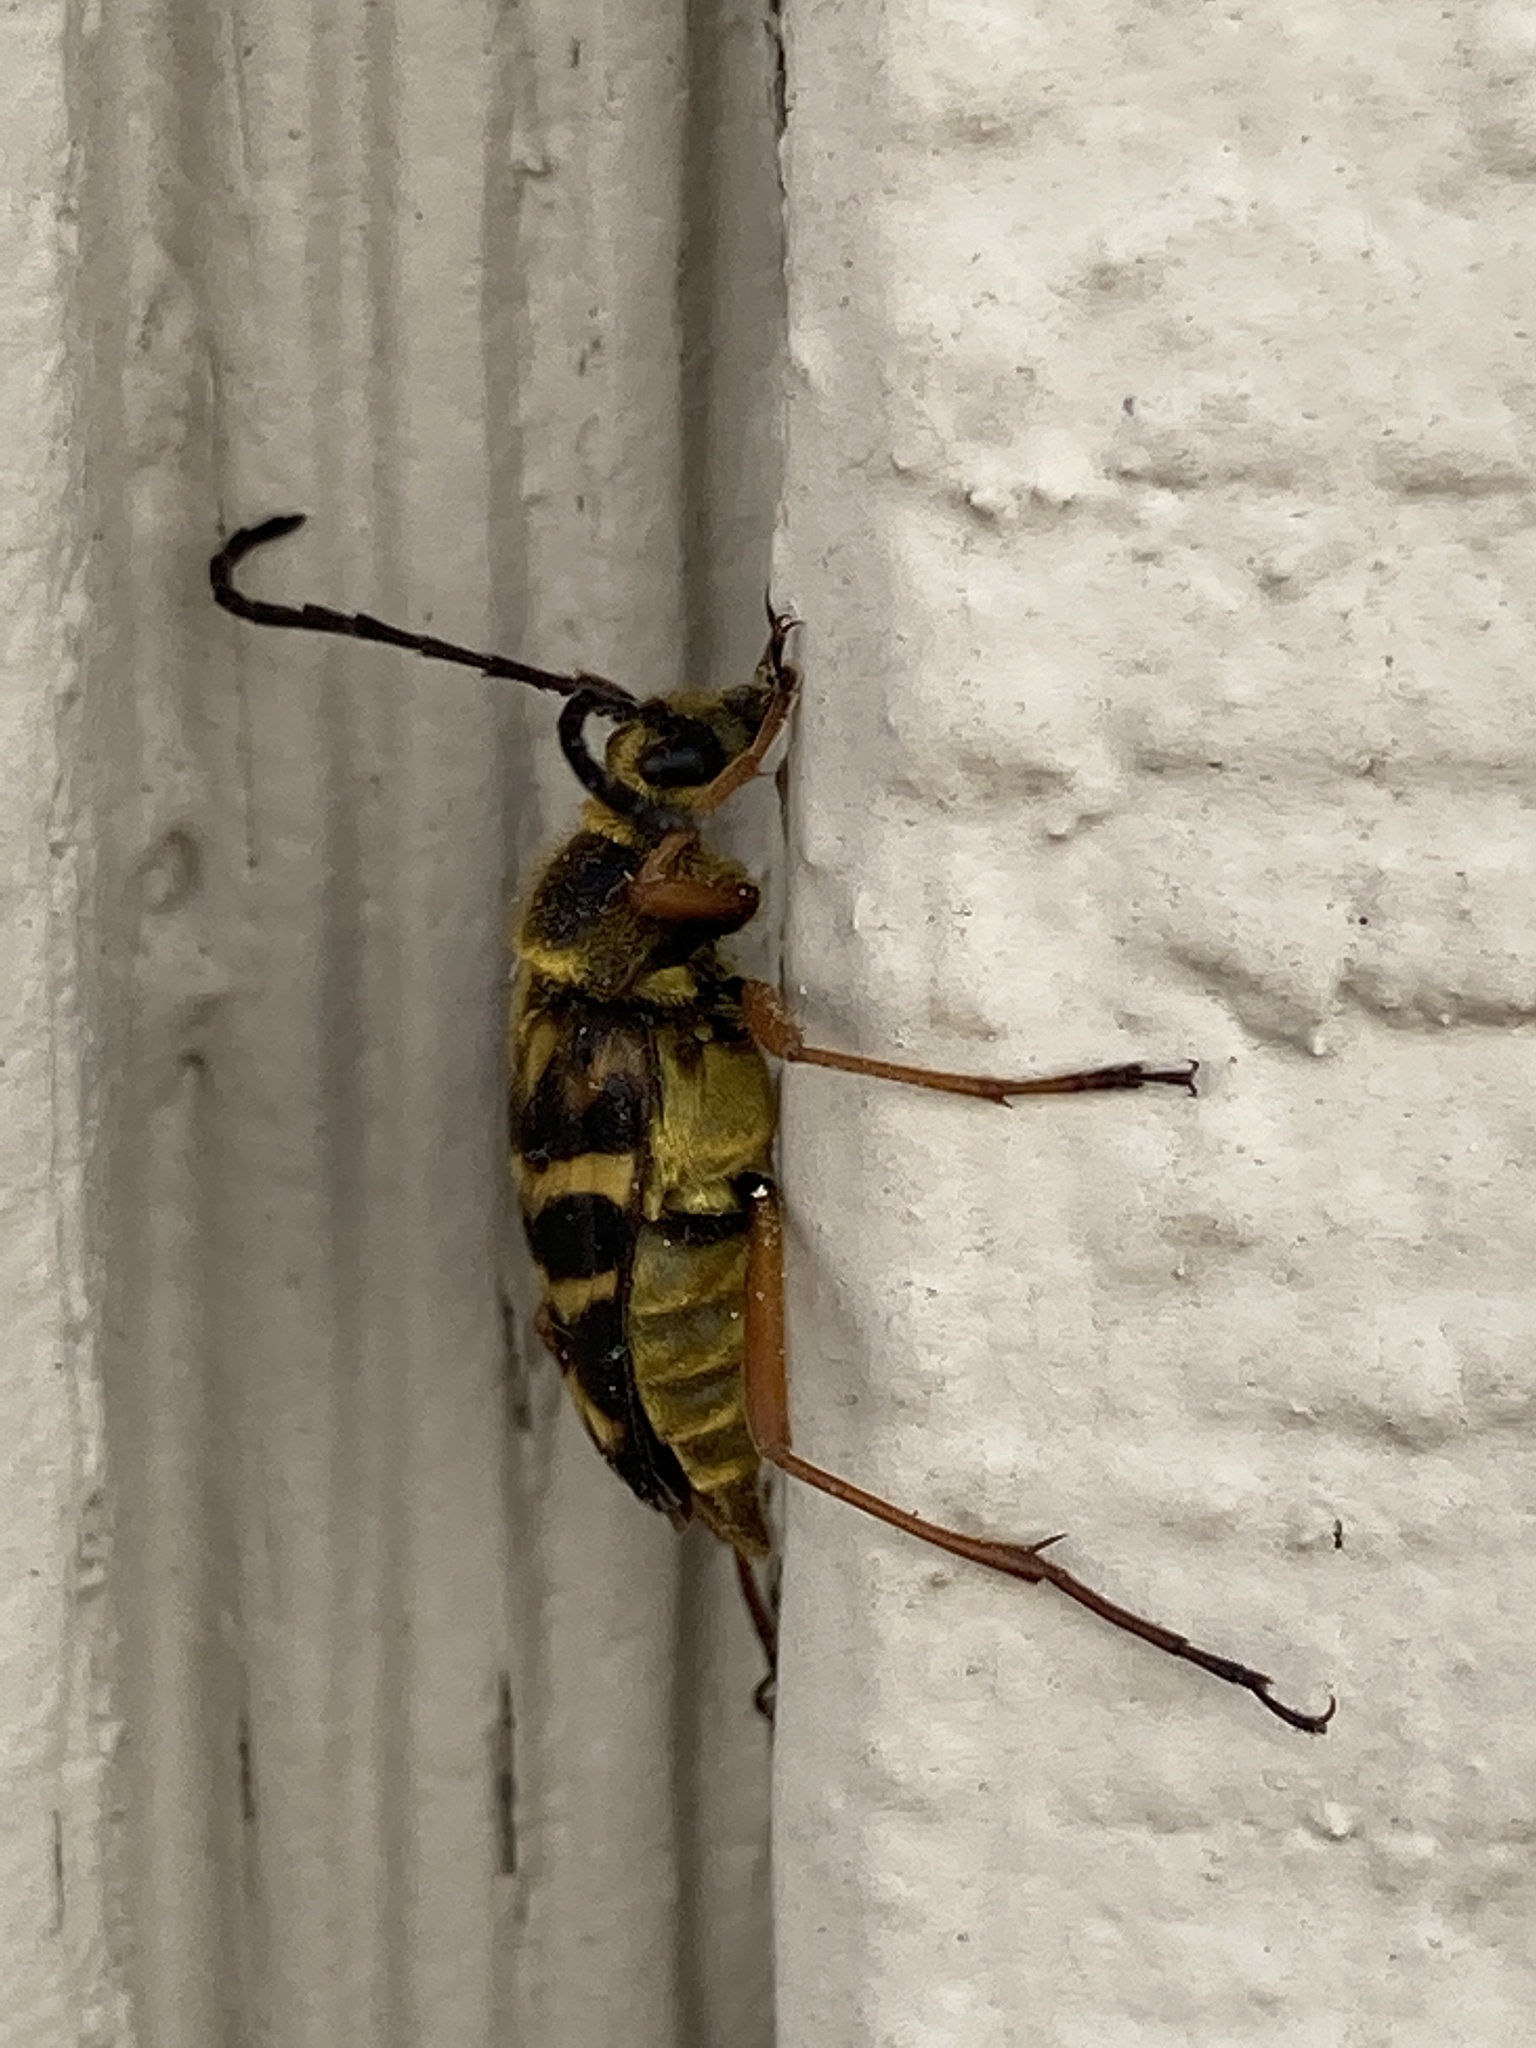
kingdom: Animalia
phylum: Arthropoda
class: Insecta
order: Coleoptera
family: Cerambycidae
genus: Typocerus
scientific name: Typocerus zebra
